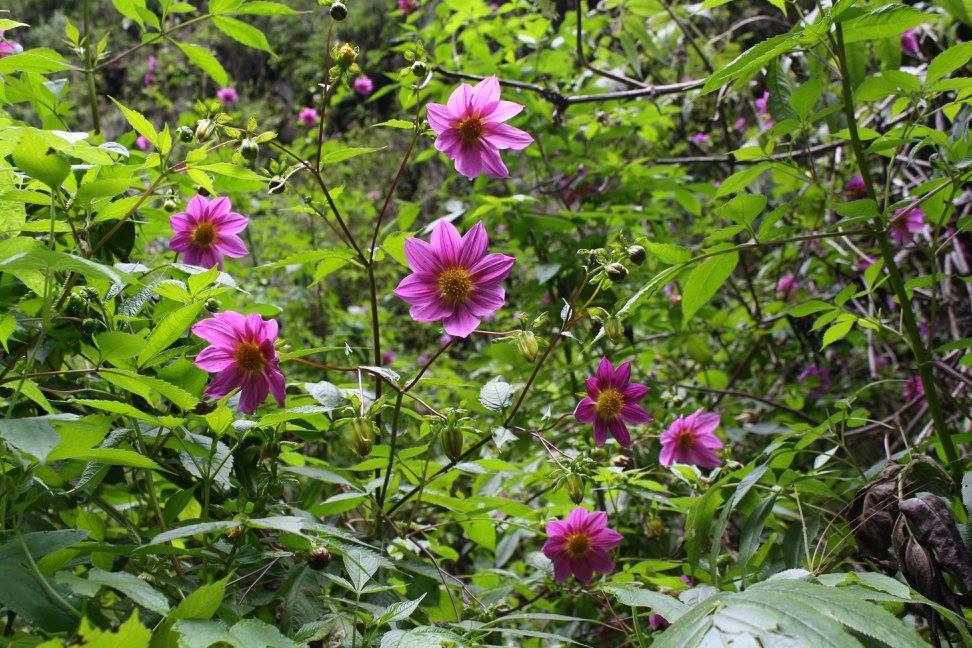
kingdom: Plantae
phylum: Tracheophyta
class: Magnoliopsida
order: Asterales
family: Asteraceae
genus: Dahlia
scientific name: Dahlia imperialis
